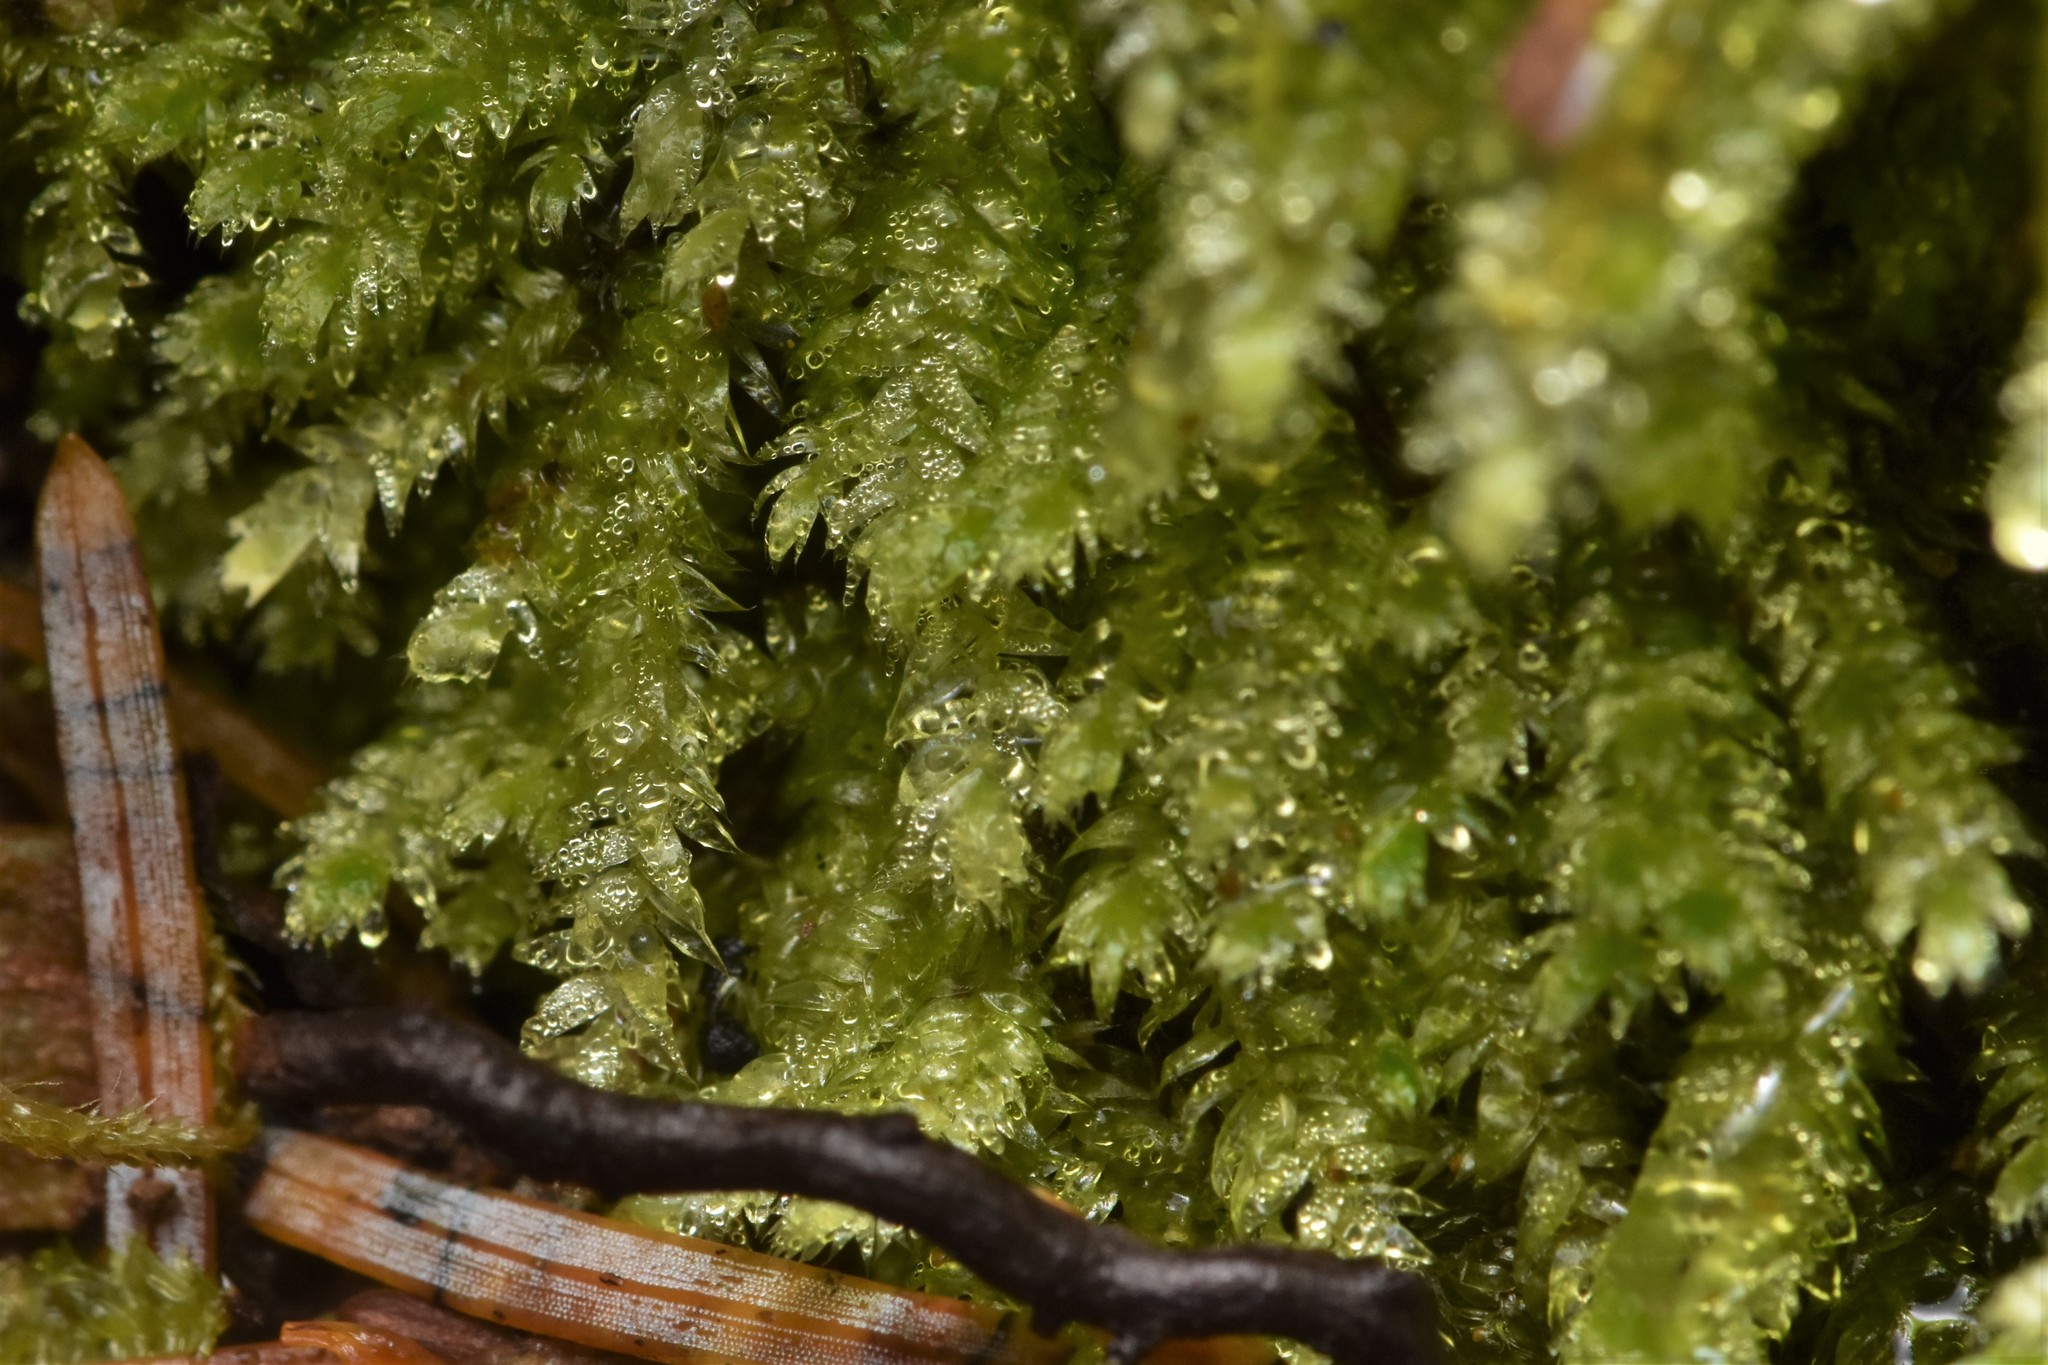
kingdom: Plantae
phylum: Bryophyta
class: Bryopsida
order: Hypnales
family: Plagiotheciaceae
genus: Pseudotaxiphyllum
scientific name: Pseudotaxiphyllum elegans
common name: Elegant silk moss
